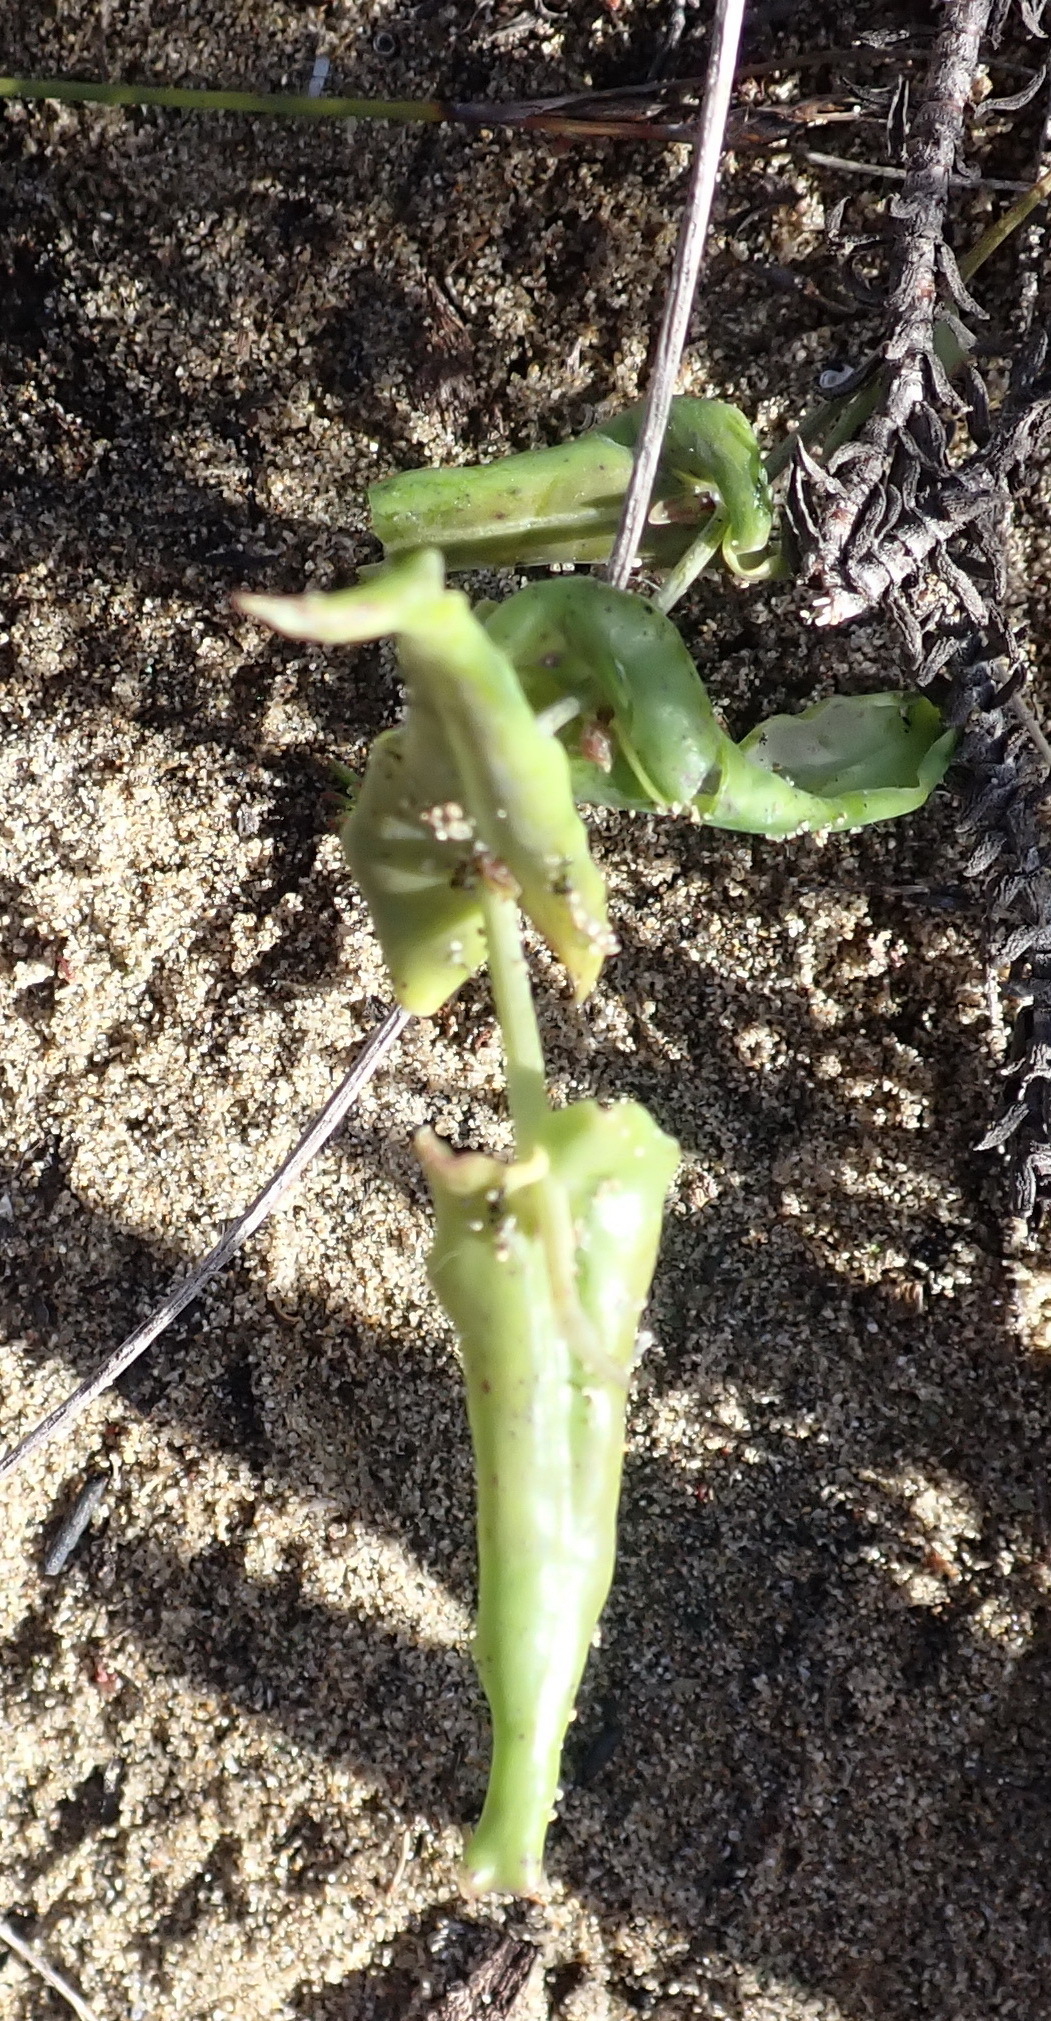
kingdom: Plantae
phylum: Tracheophyta
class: Magnoliopsida
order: Asterales
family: Asteraceae
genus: Othonna
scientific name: Othonna undulosa
